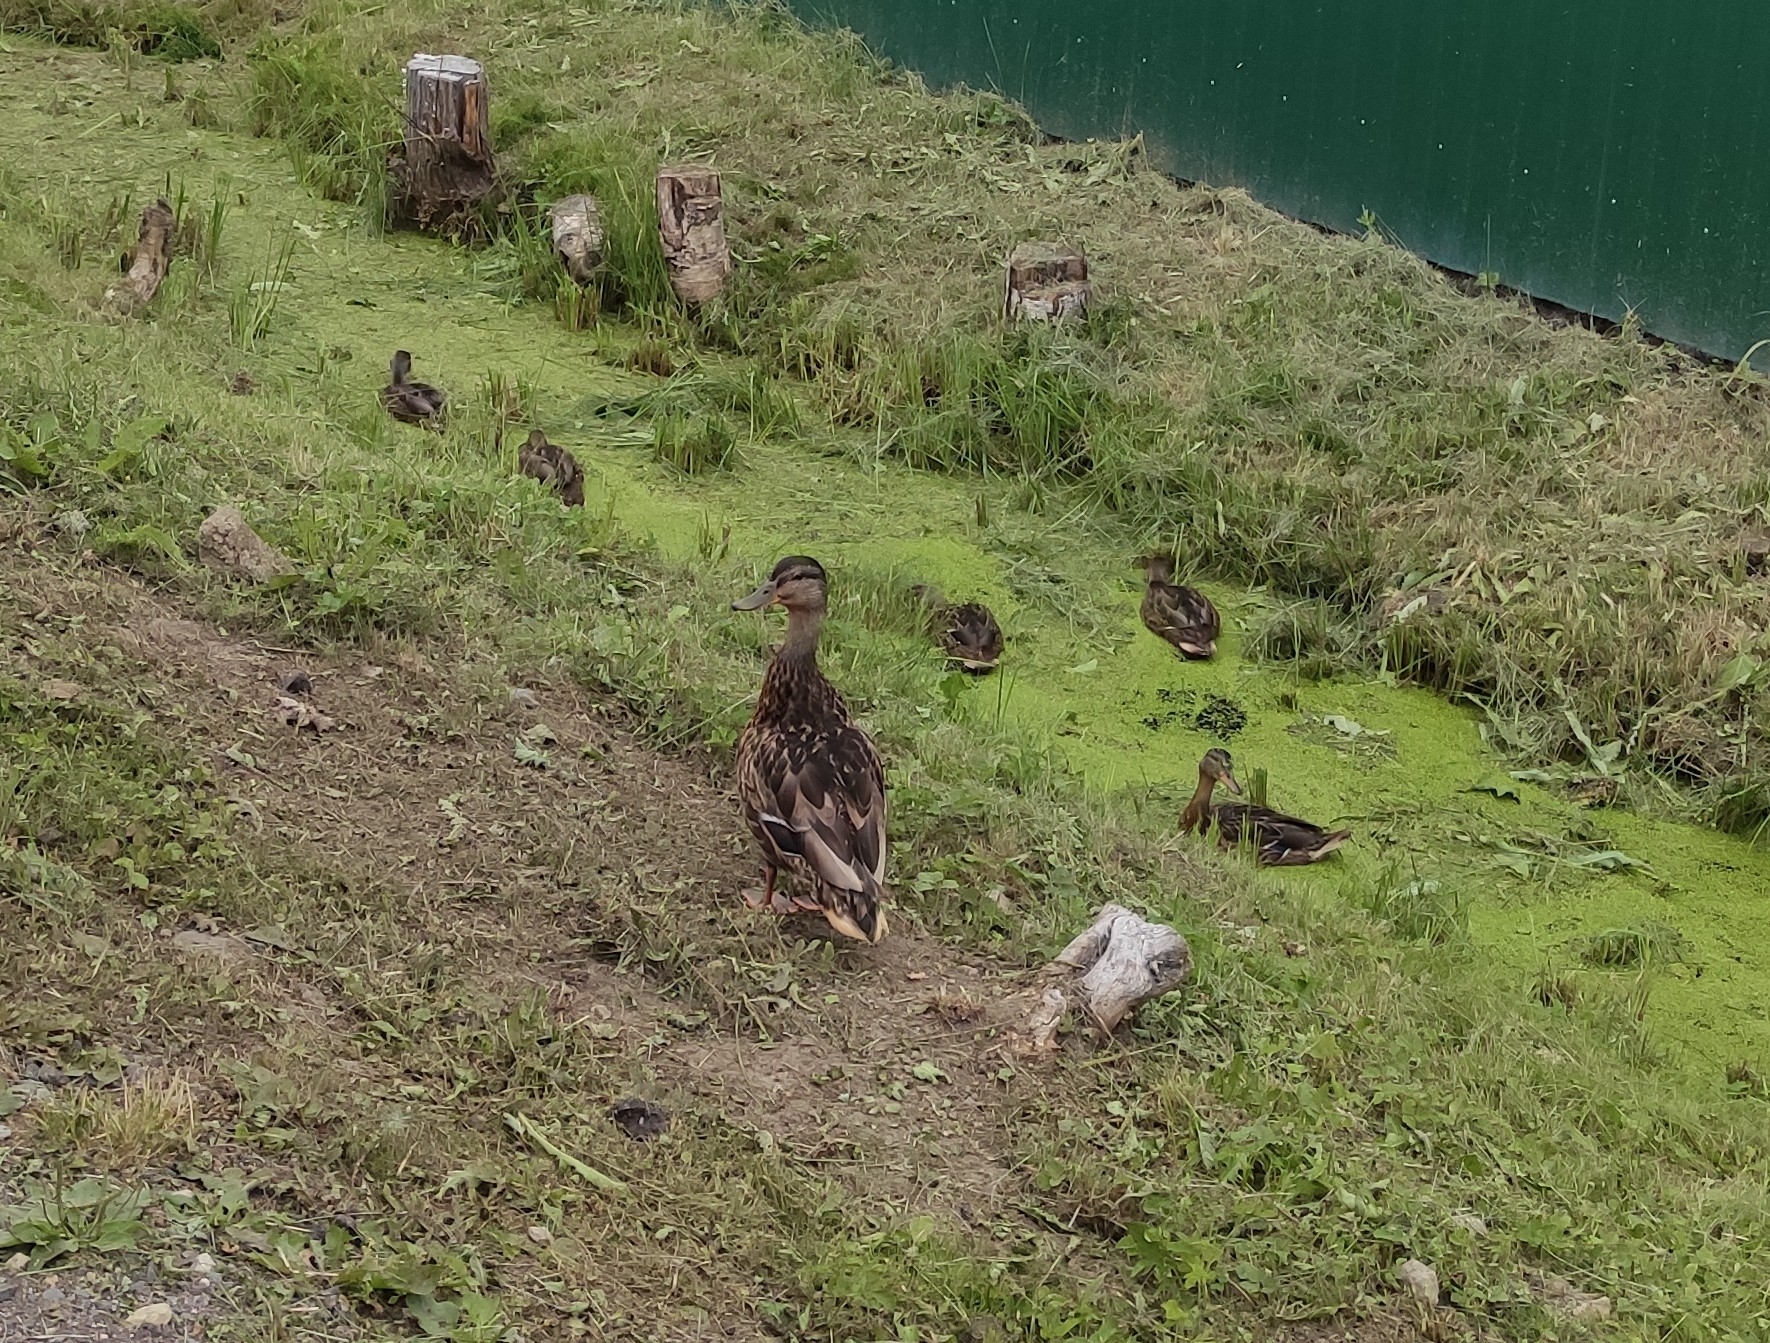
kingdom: Animalia
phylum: Chordata
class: Aves
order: Anseriformes
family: Anatidae
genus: Anas
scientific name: Anas platyrhynchos
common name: Mallard
